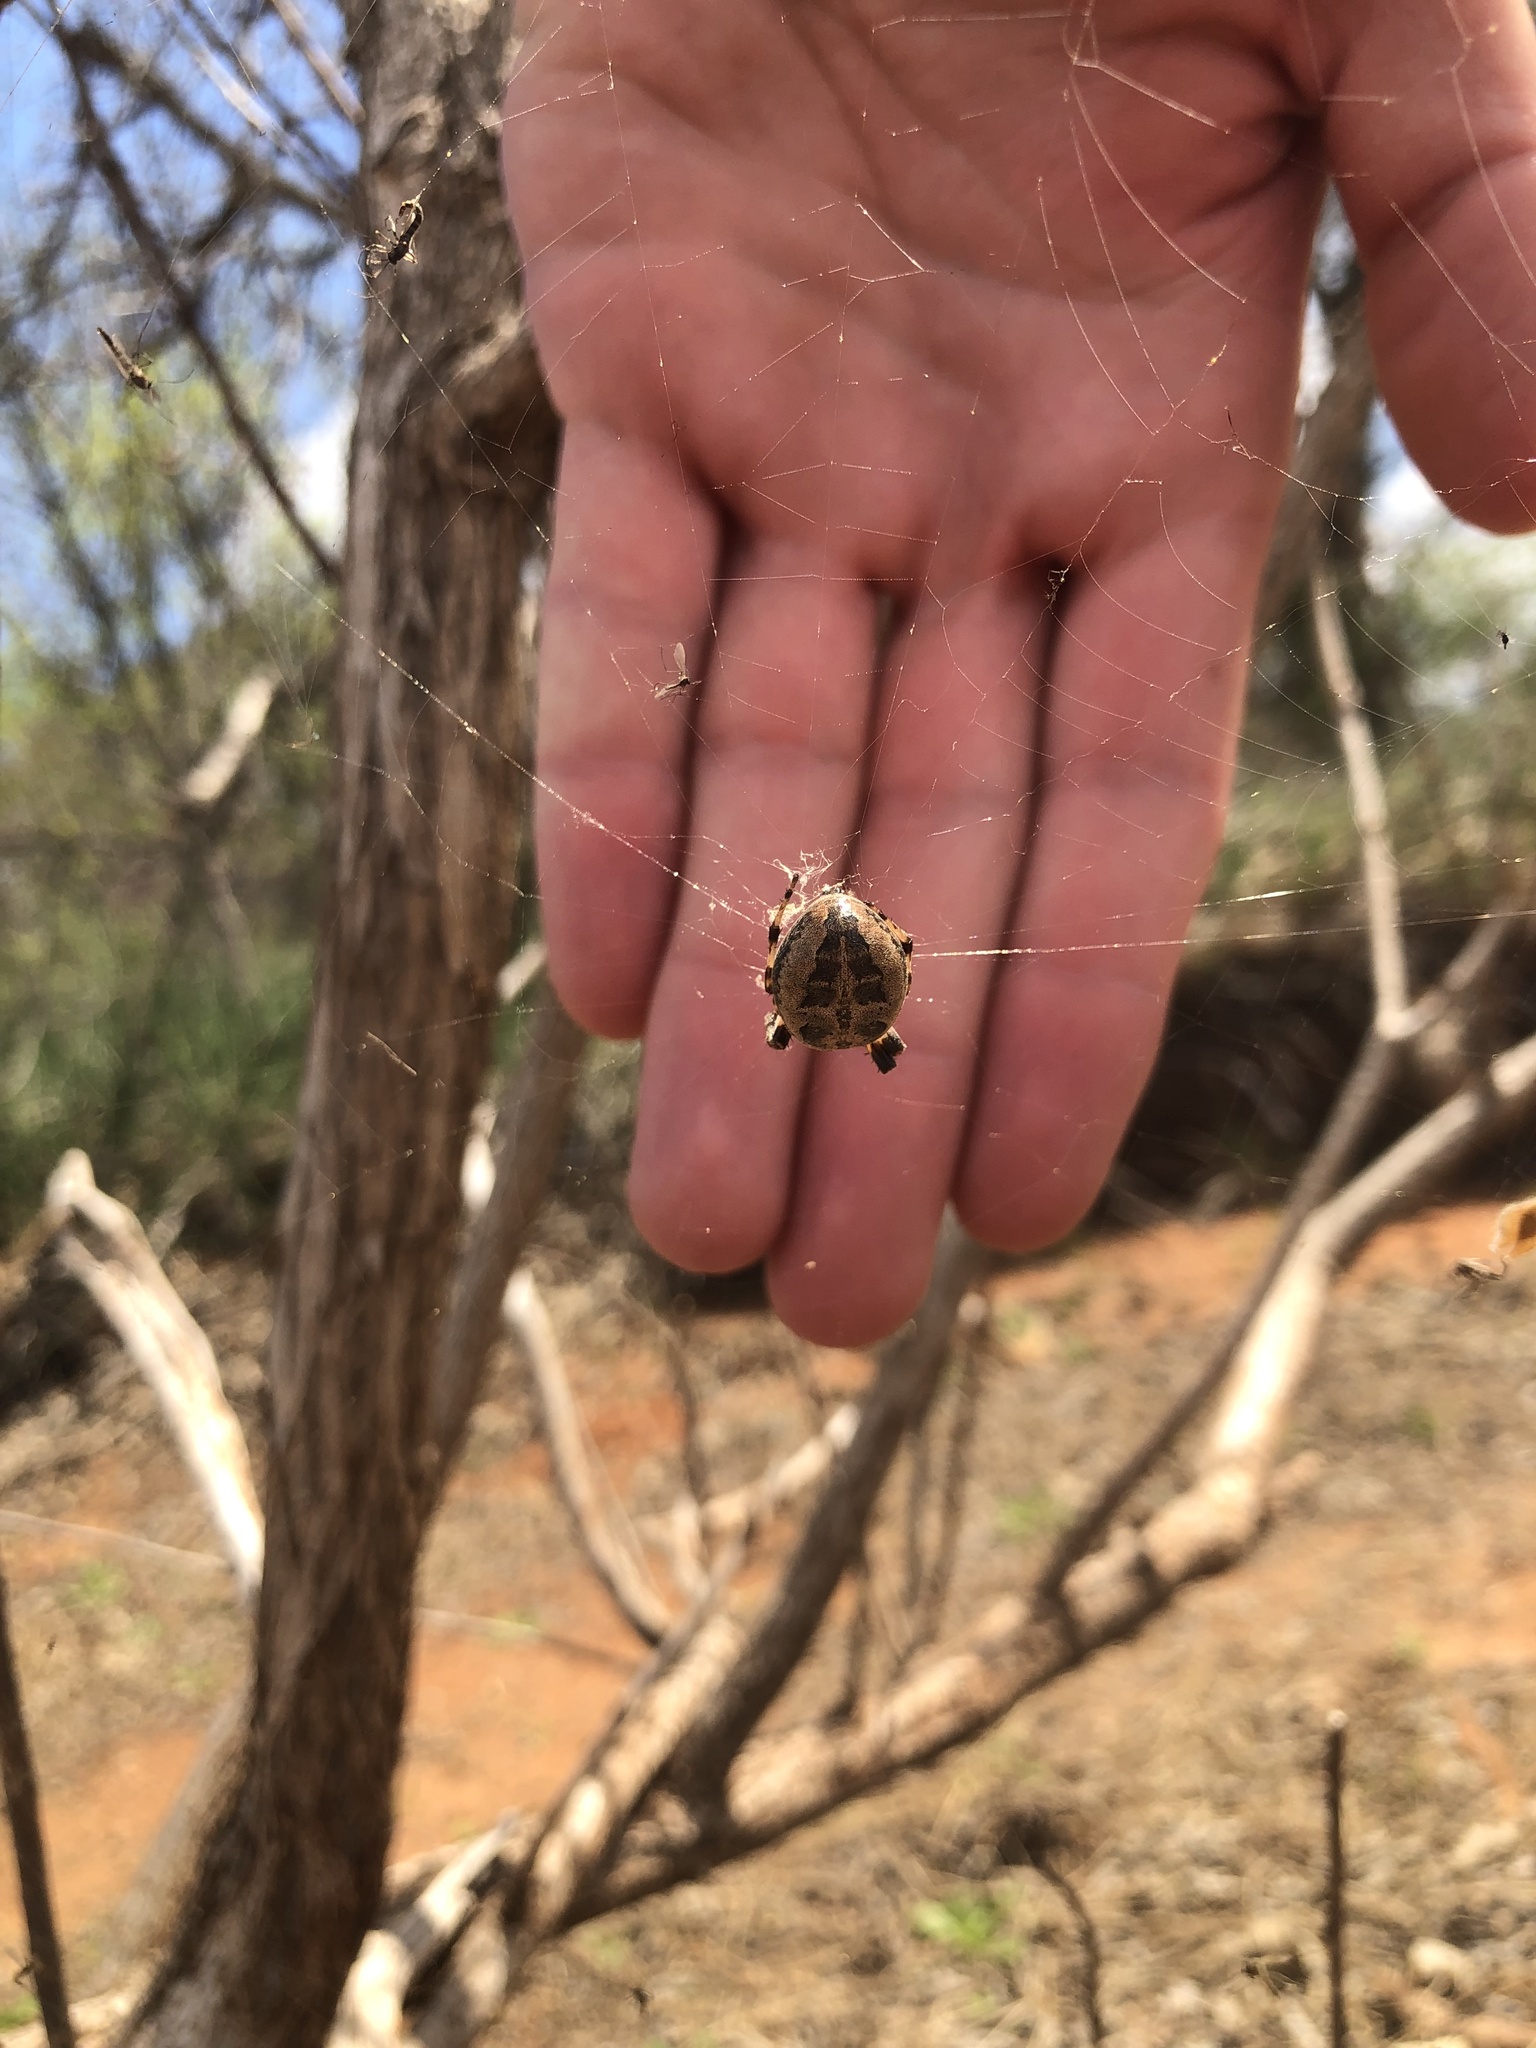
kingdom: Animalia
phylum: Arthropoda
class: Arachnida
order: Araneae
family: Araneidae
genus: Larinioides
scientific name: Larinioides cornutus
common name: Furrow orbweaver
